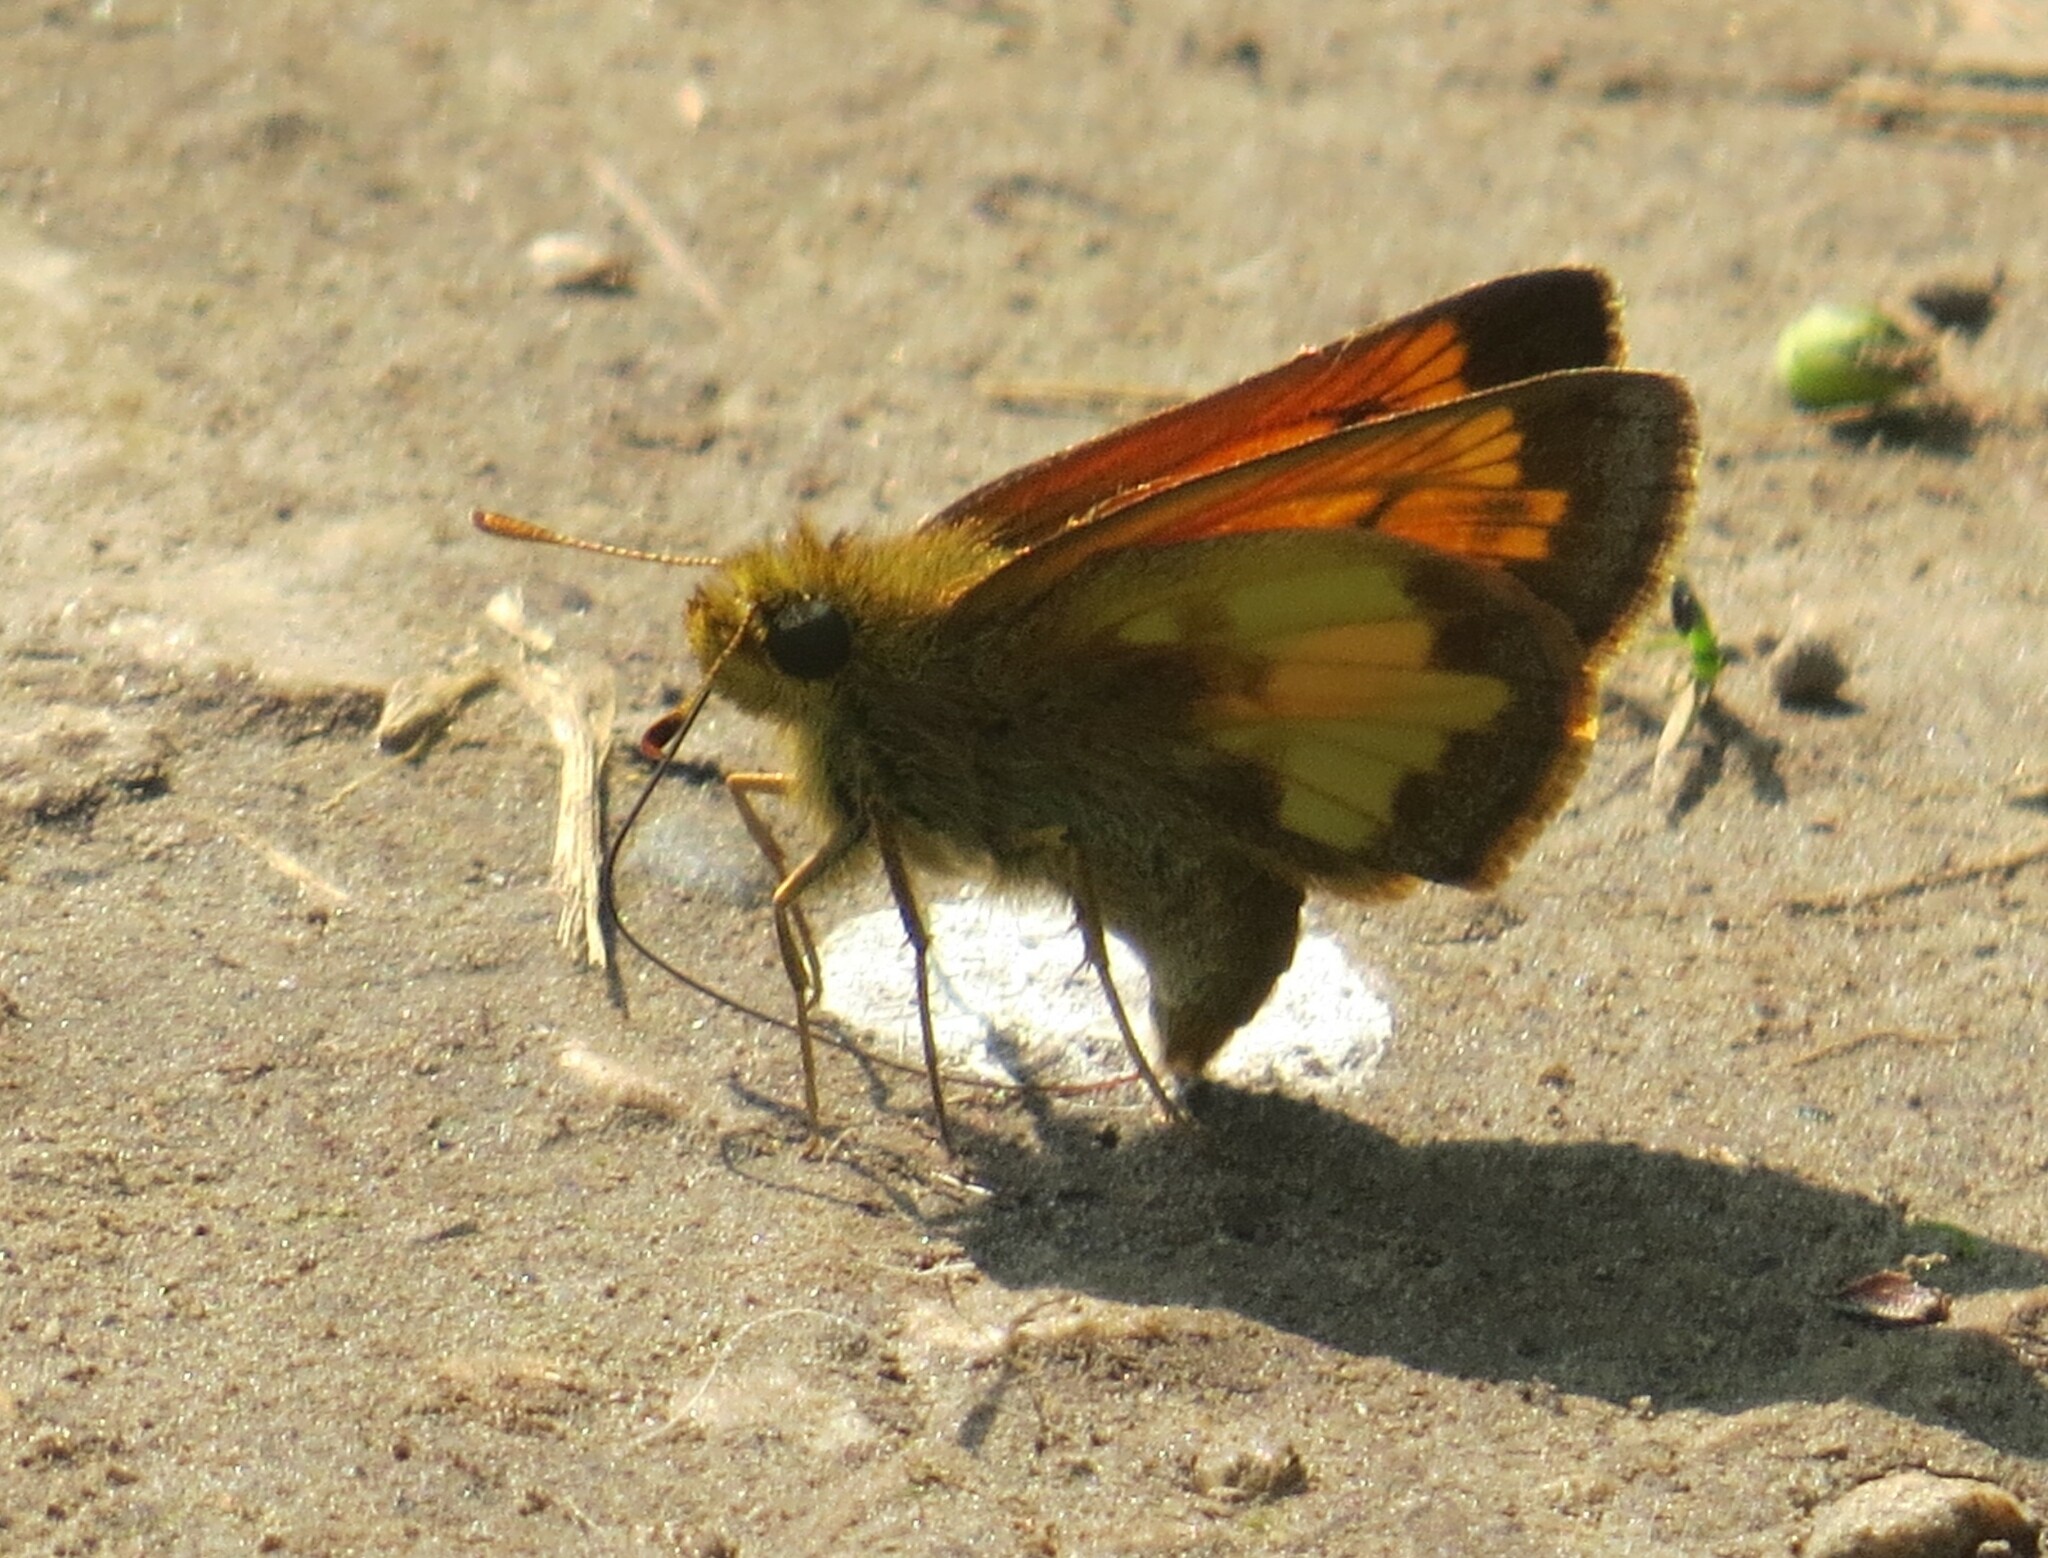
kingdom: Animalia
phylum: Arthropoda
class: Insecta
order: Lepidoptera
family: Hesperiidae
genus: Lon
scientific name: Lon hobomok
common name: Hobomok skipper
